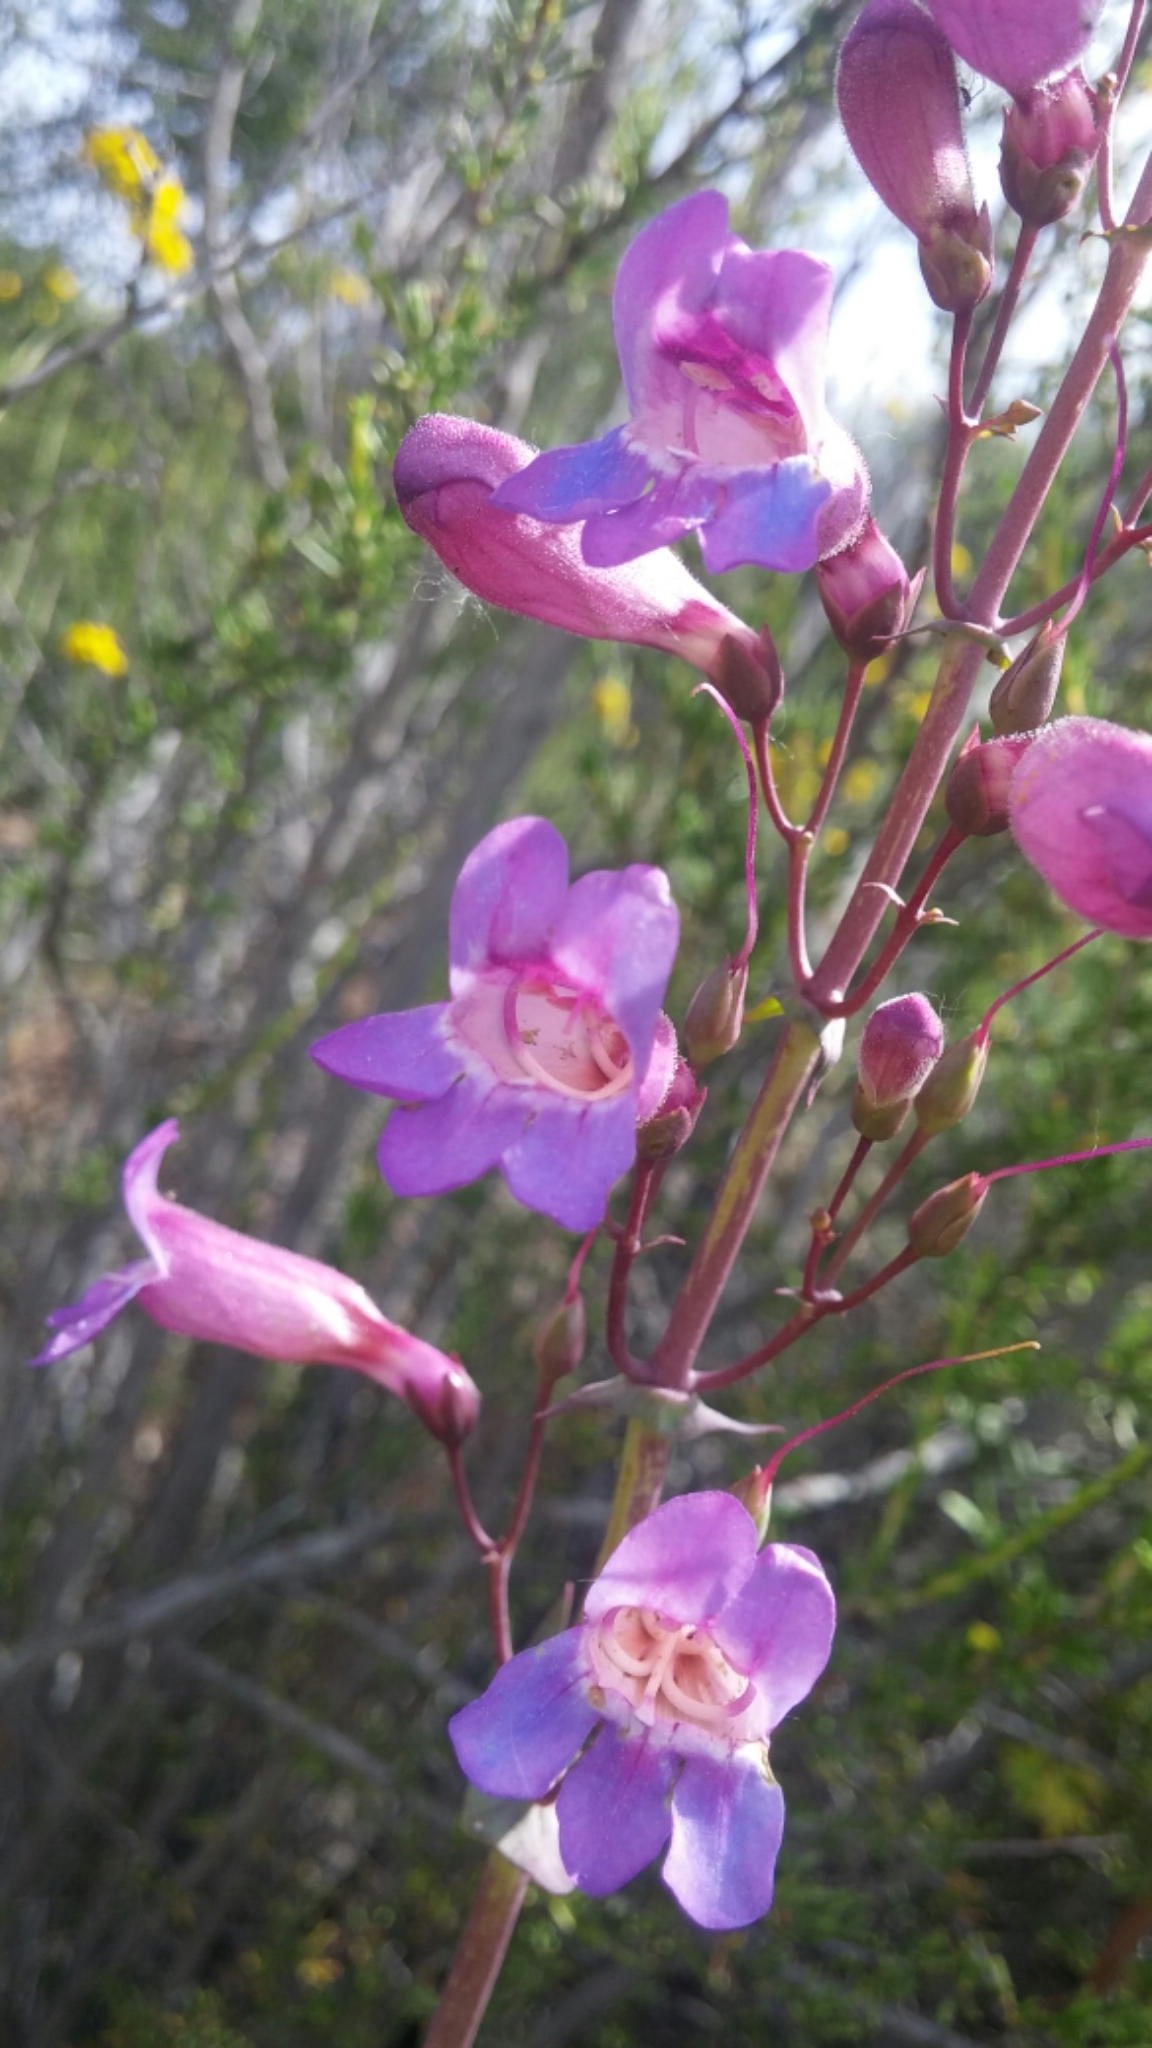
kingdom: Plantae
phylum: Tracheophyta
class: Magnoliopsida
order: Lamiales
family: Plantaginaceae
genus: Penstemon
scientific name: Penstemon spectabilis
